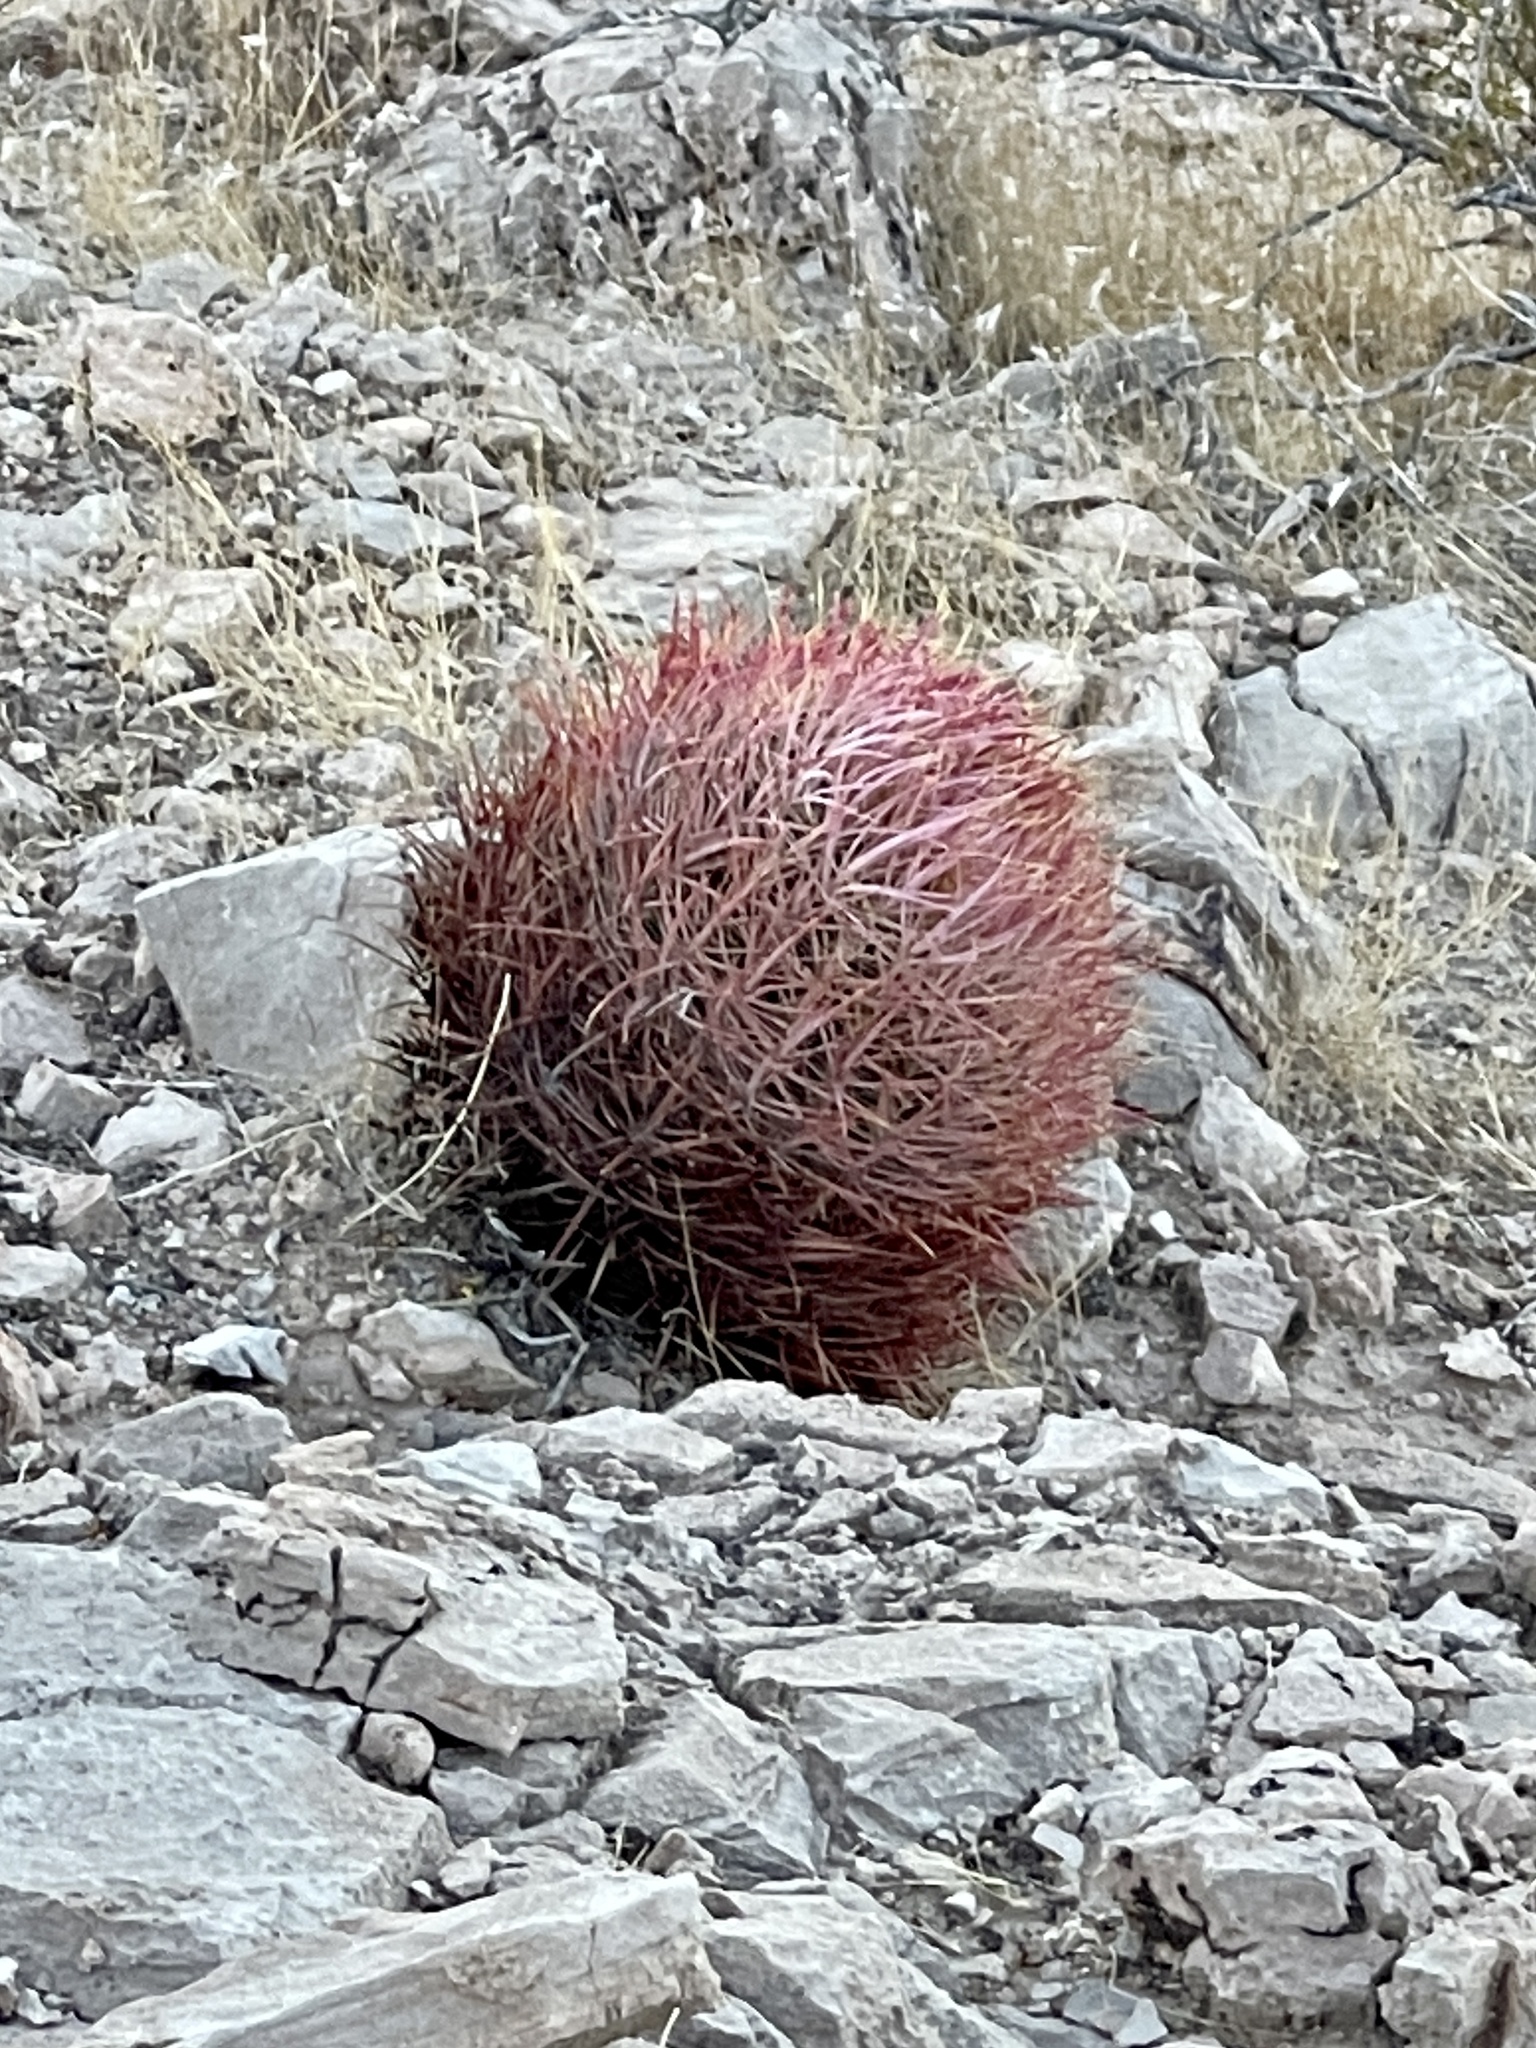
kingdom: Plantae
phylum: Tracheophyta
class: Magnoliopsida
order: Caryophyllales
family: Cactaceae
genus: Ferocactus
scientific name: Ferocactus cylindraceus
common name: California barrel cactus
